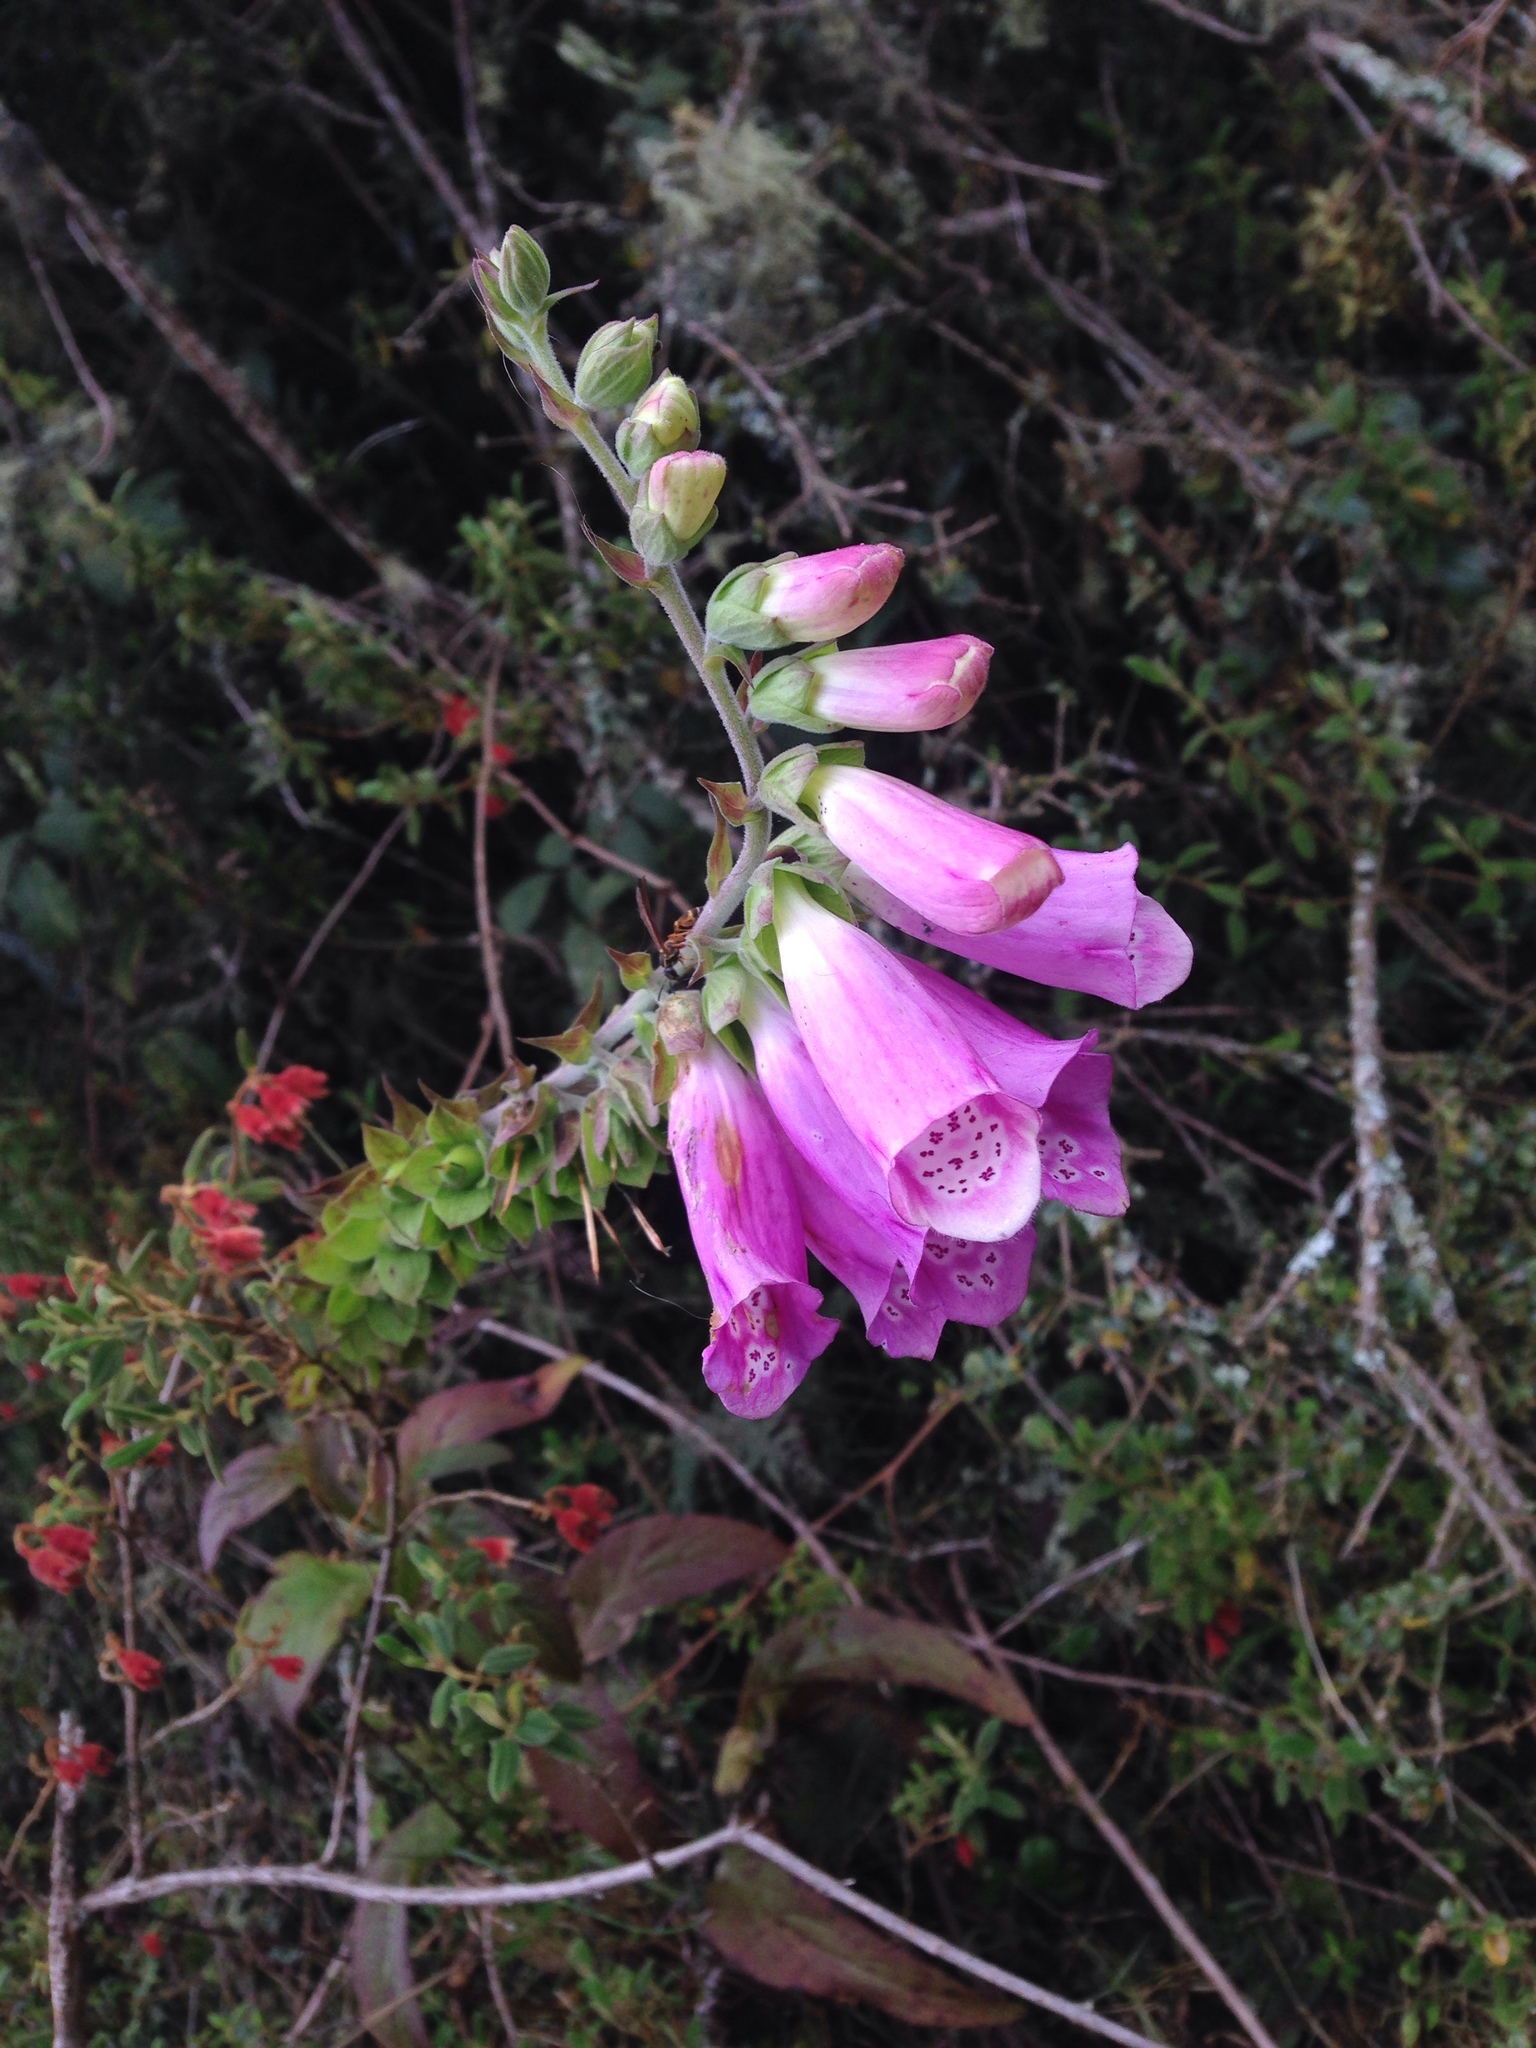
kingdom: Plantae
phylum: Tracheophyta
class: Magnoliopsida
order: Lamiales
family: Plantaginaceae
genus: Digitalis
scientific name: Digitalis purpurea
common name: Foxglove
